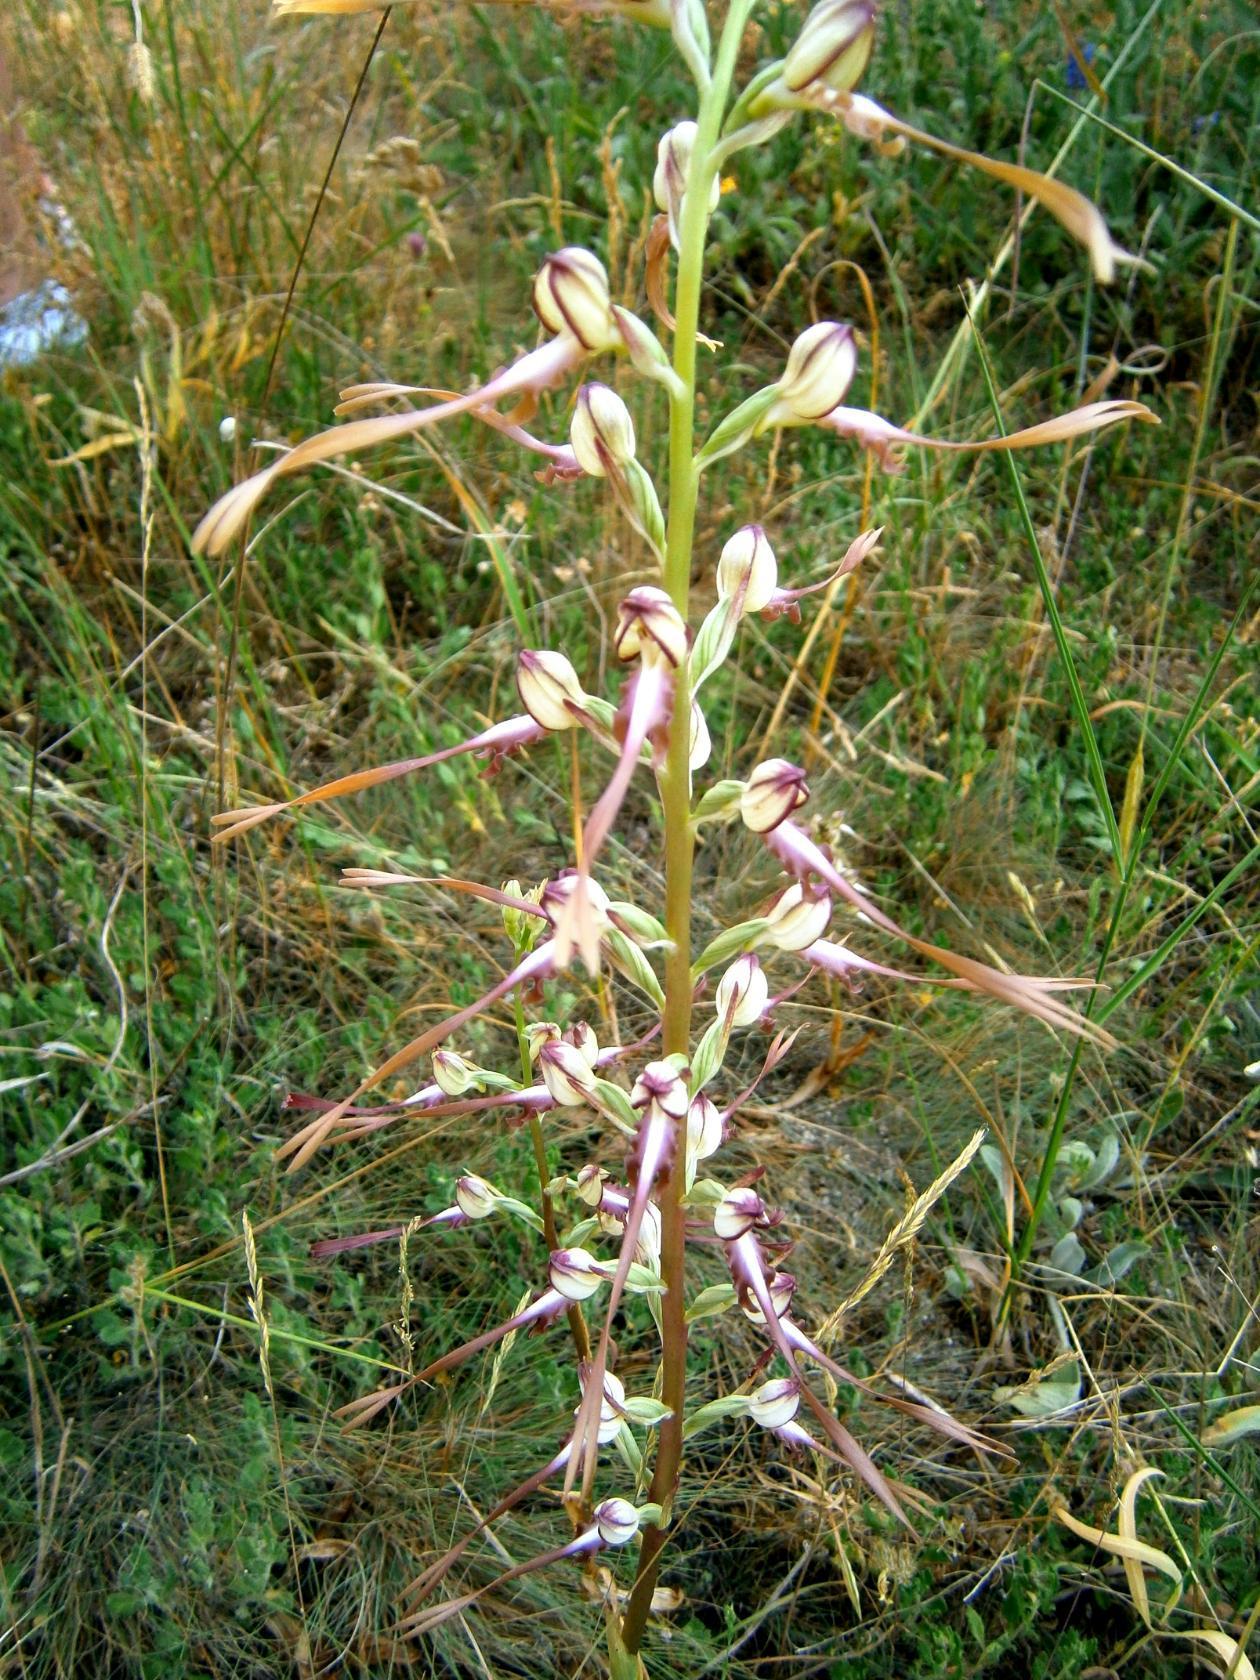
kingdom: Plantae
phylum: Tracheophyta
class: Liliopsida
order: Asparagales
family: Orchidaceae
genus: Himantoglossum
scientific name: Himantoglossum caprinum
